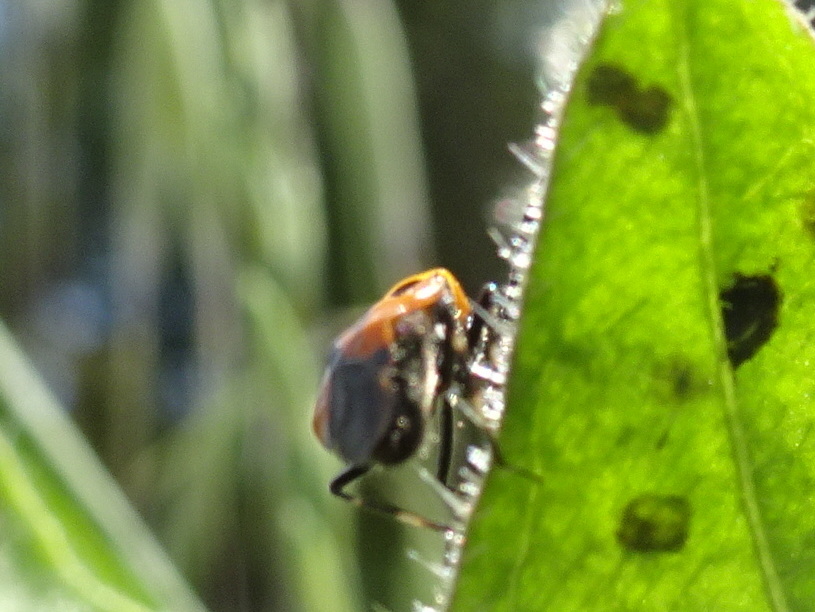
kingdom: Animalia
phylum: Arthropoda
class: Insecta
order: Hemiptera
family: Miridae
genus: Deraeocoris
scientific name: Deraeocoris punctum
